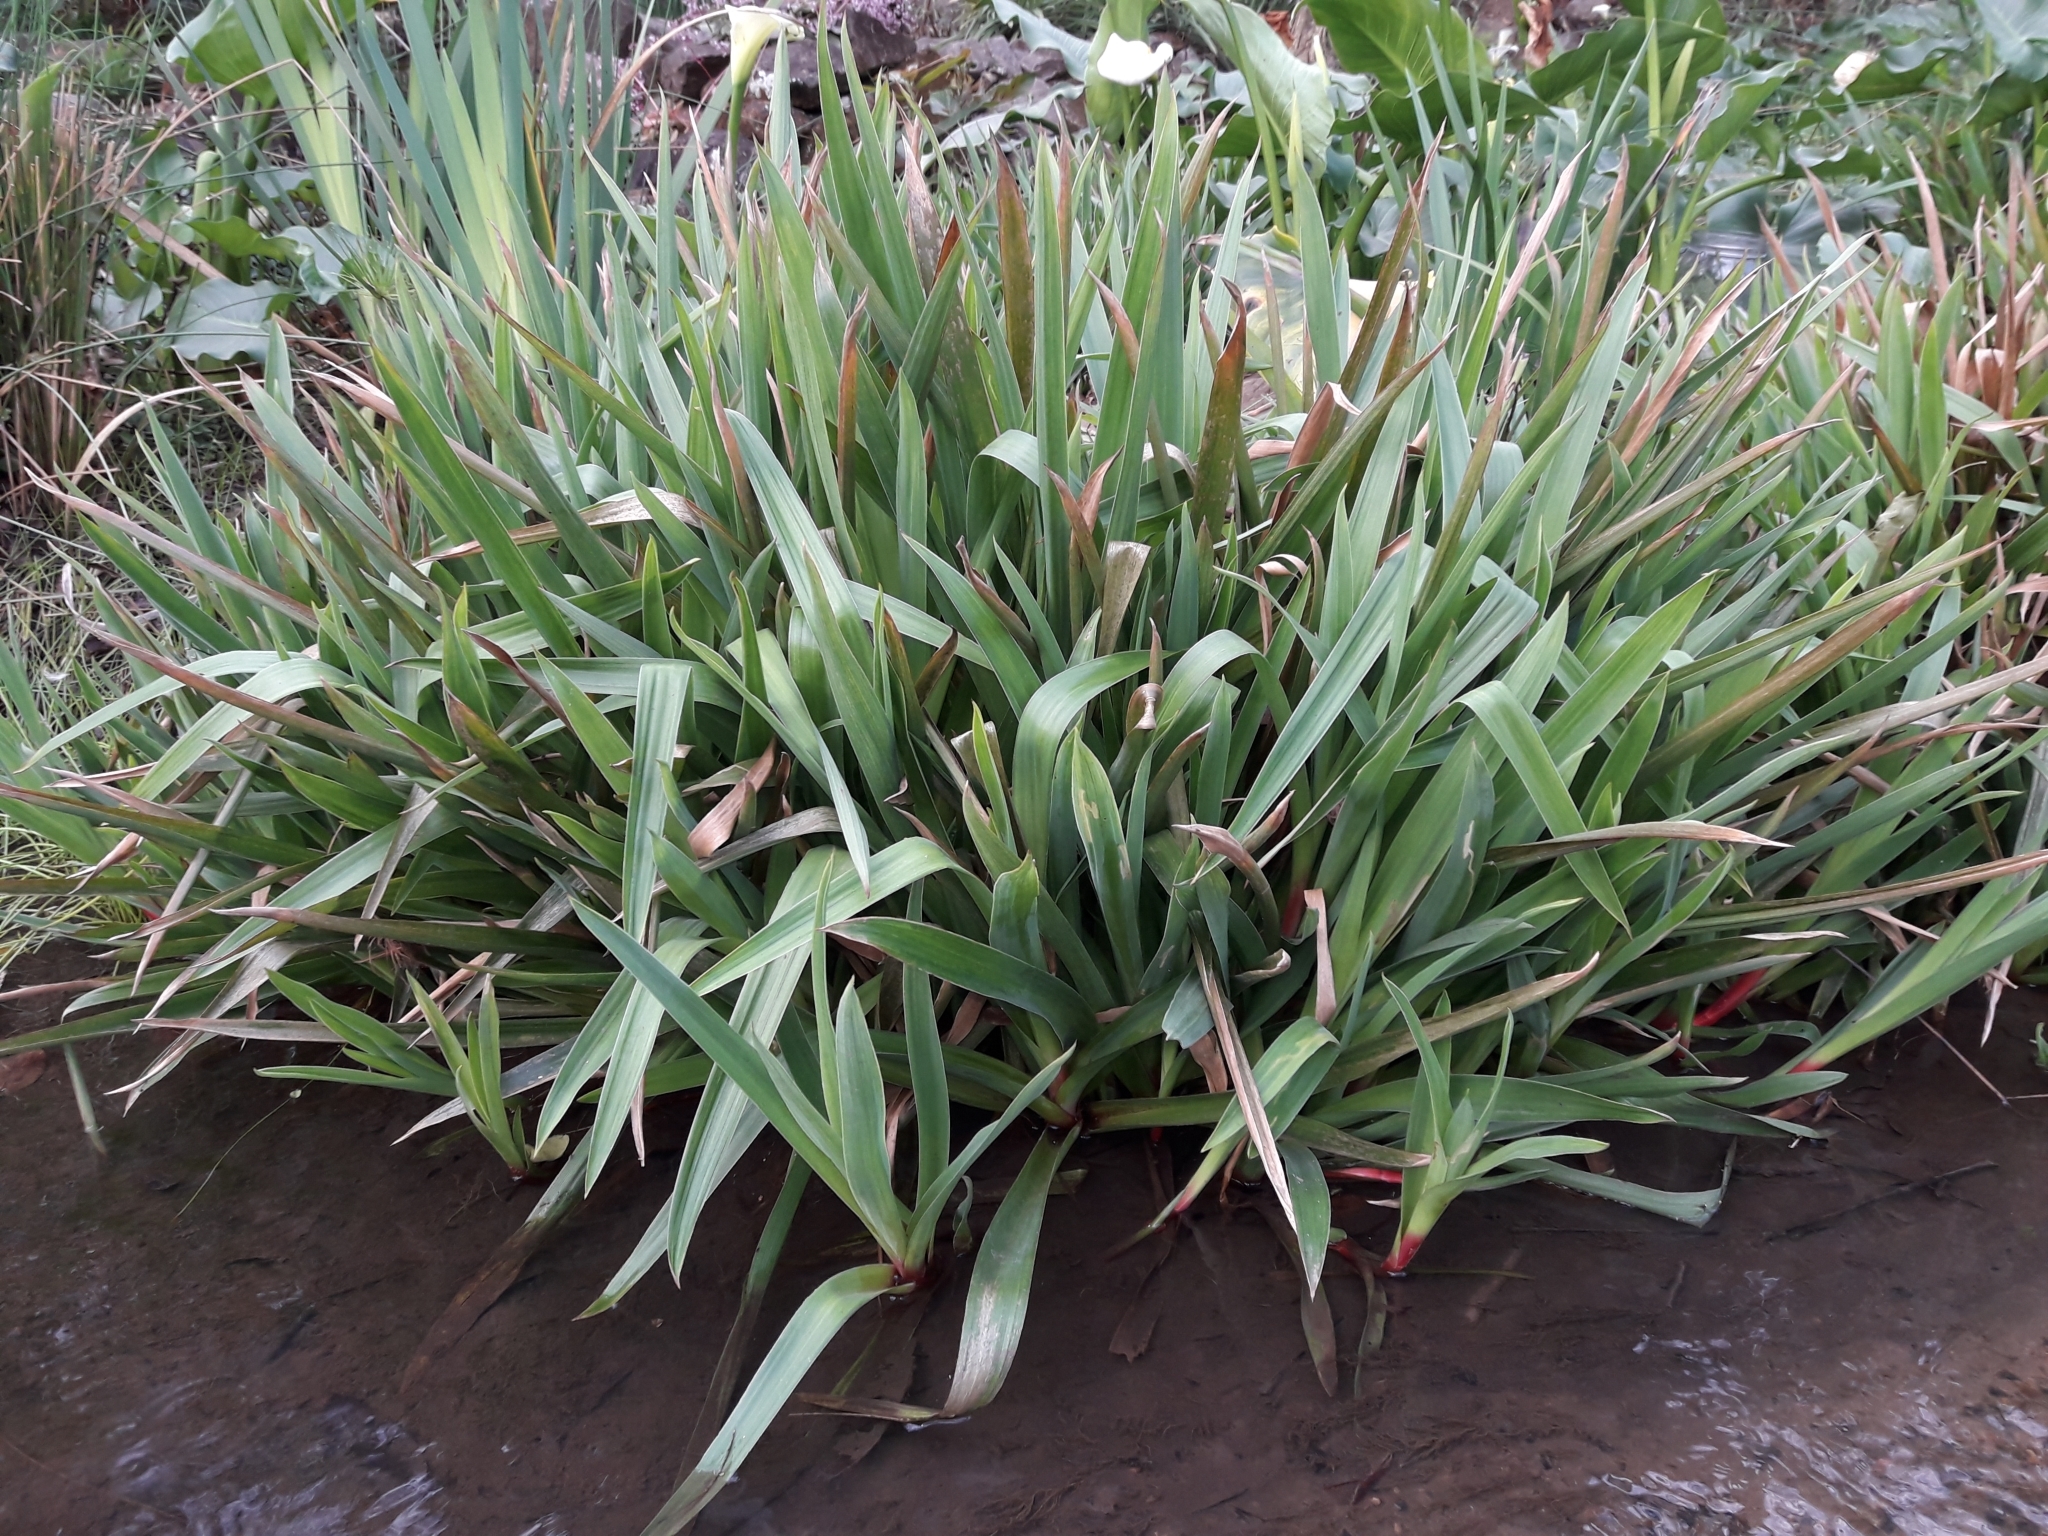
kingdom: Plantae
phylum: Tracheophyta
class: Liliopsida
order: Poales
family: Juncaceae
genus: Juncus
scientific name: Juncus lomatophyllus
